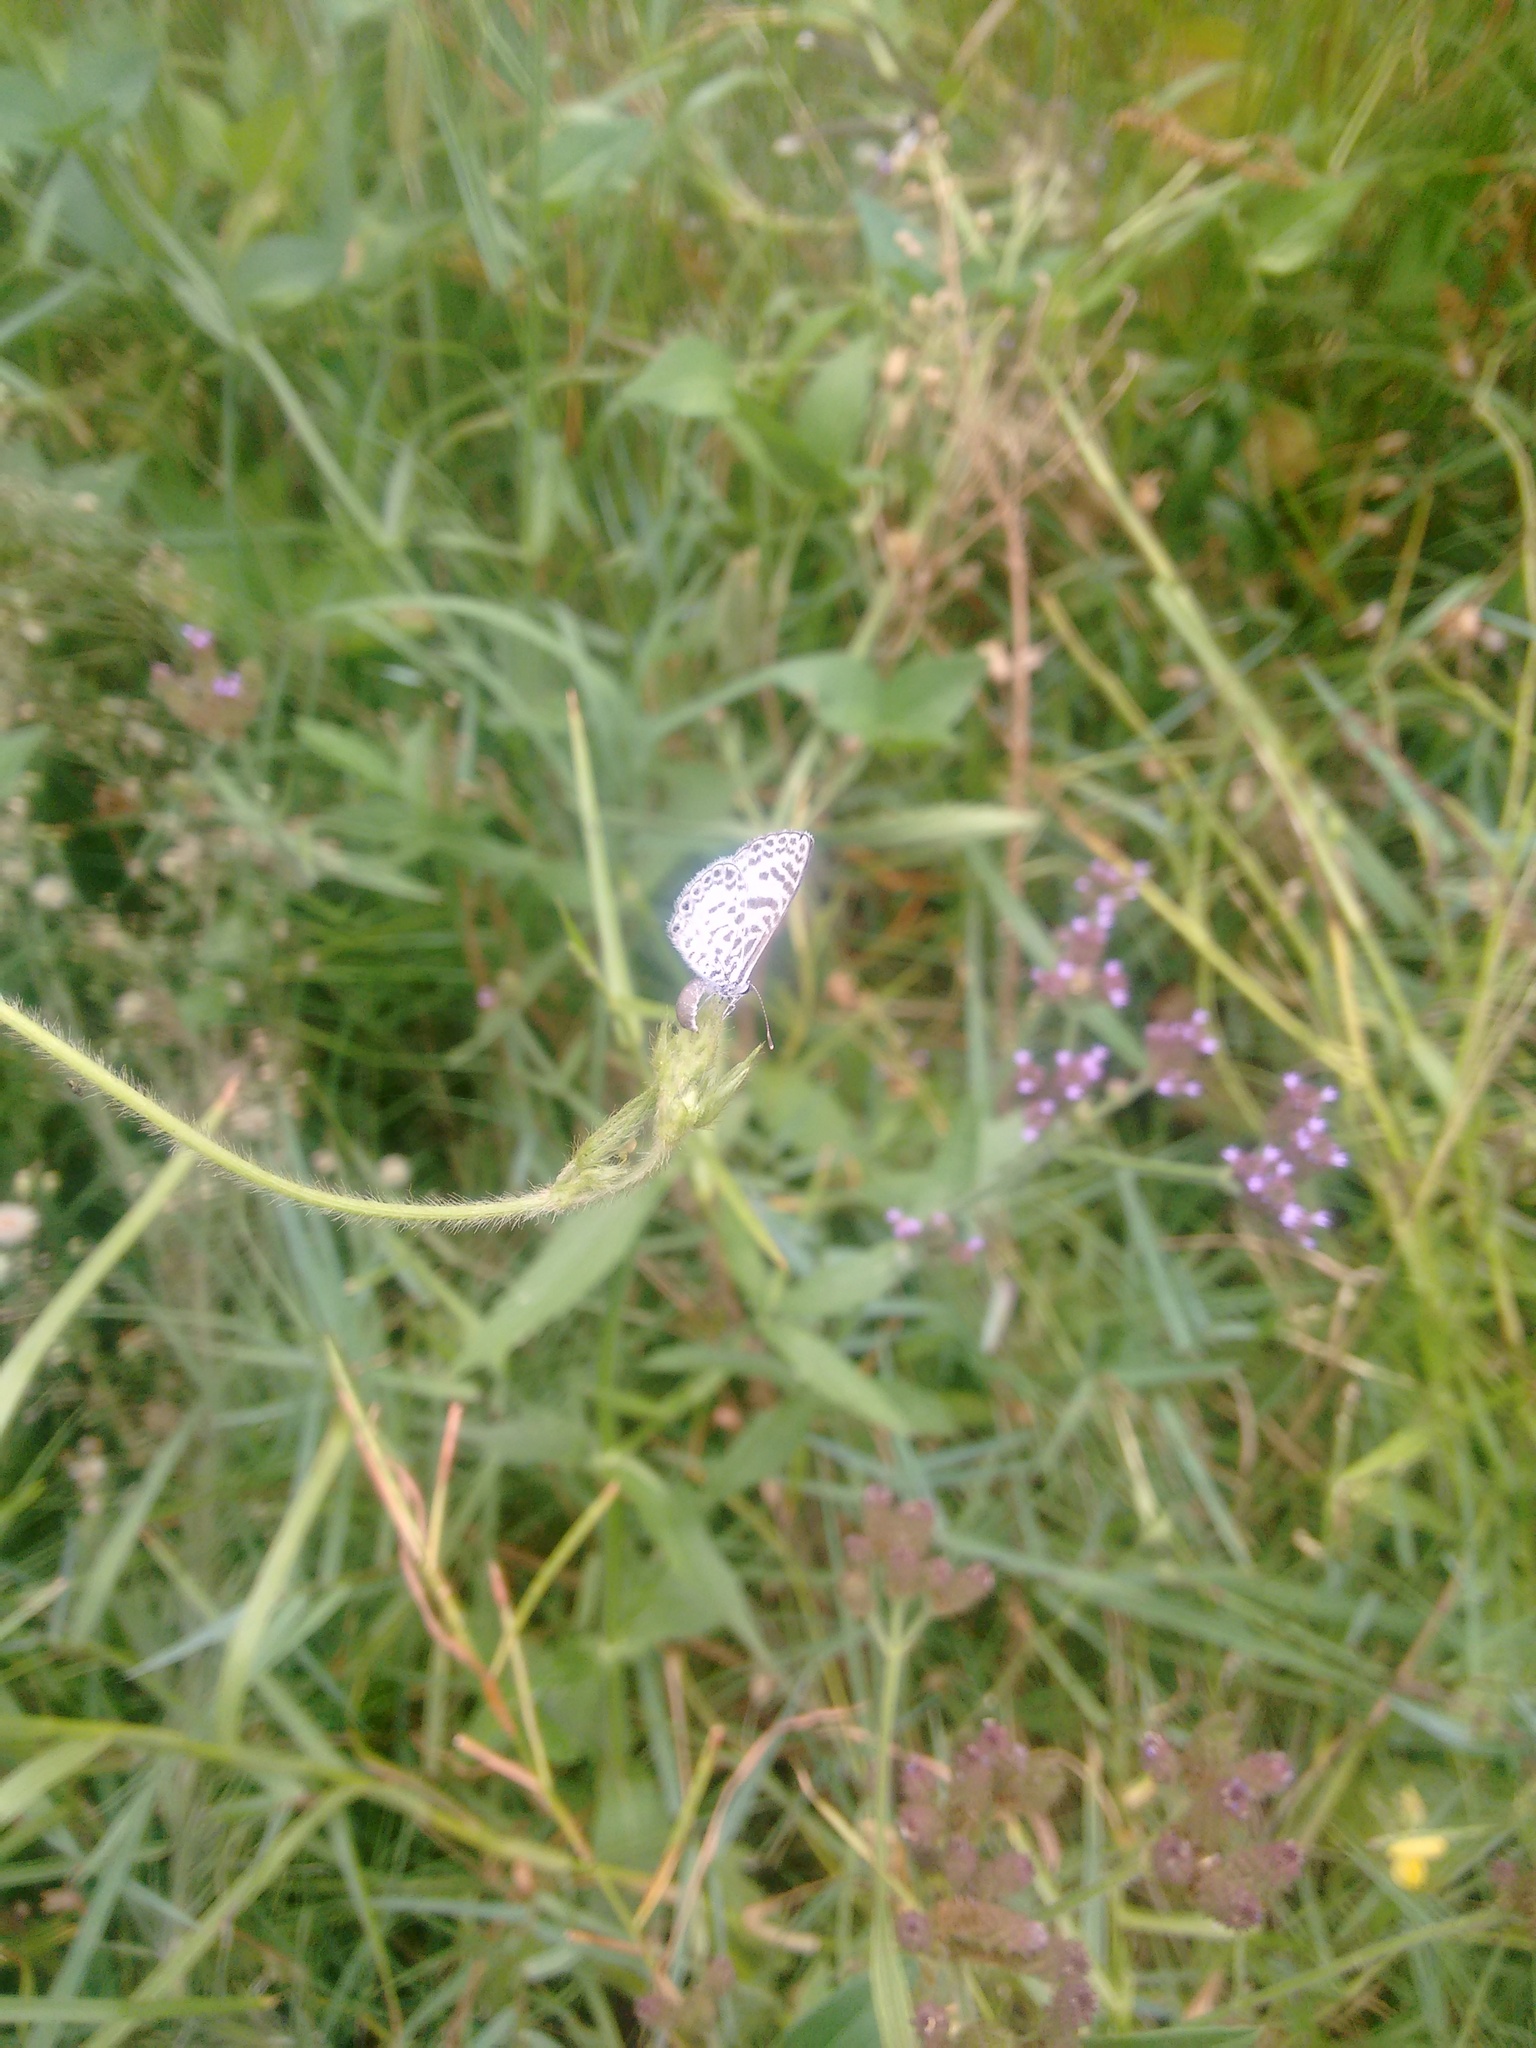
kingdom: Animalia
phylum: Arthropoda
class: Insecta
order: Lepidoptera
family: Lycaenidae
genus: Leptotes
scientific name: Leptotes cassius
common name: Cassius blue
